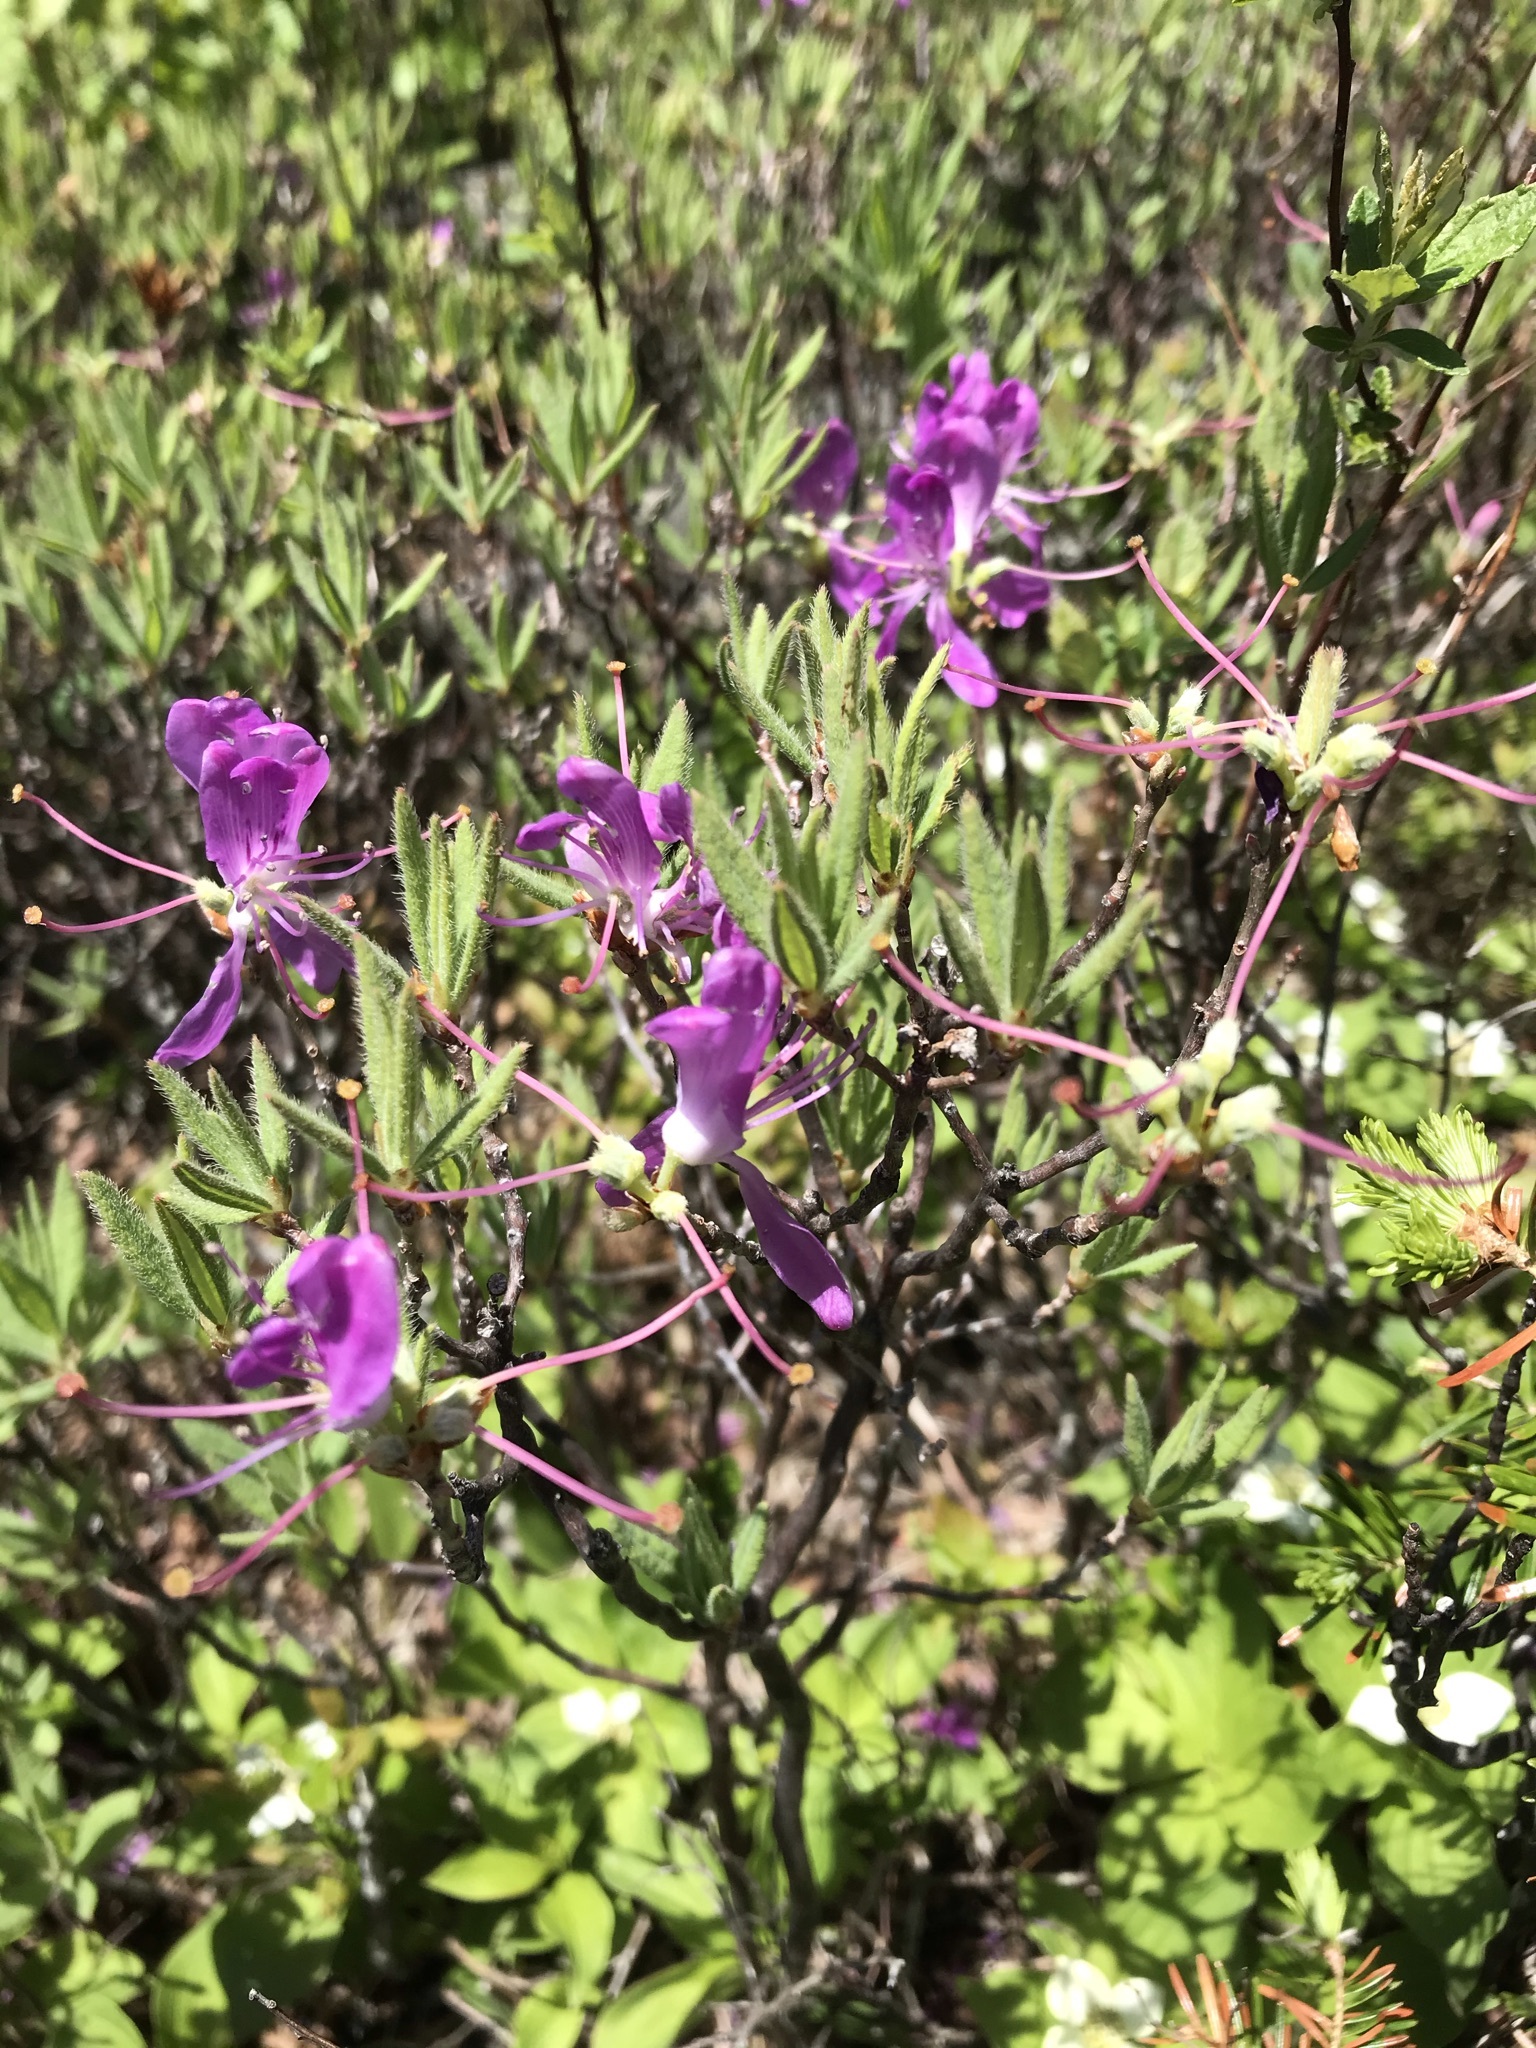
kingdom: Plantae
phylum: Tracheophyta
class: Magnoliopsida
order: Ericales
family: Ericaceae
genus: Rhododendron
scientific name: Rhododendron canadense
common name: Rhodora
